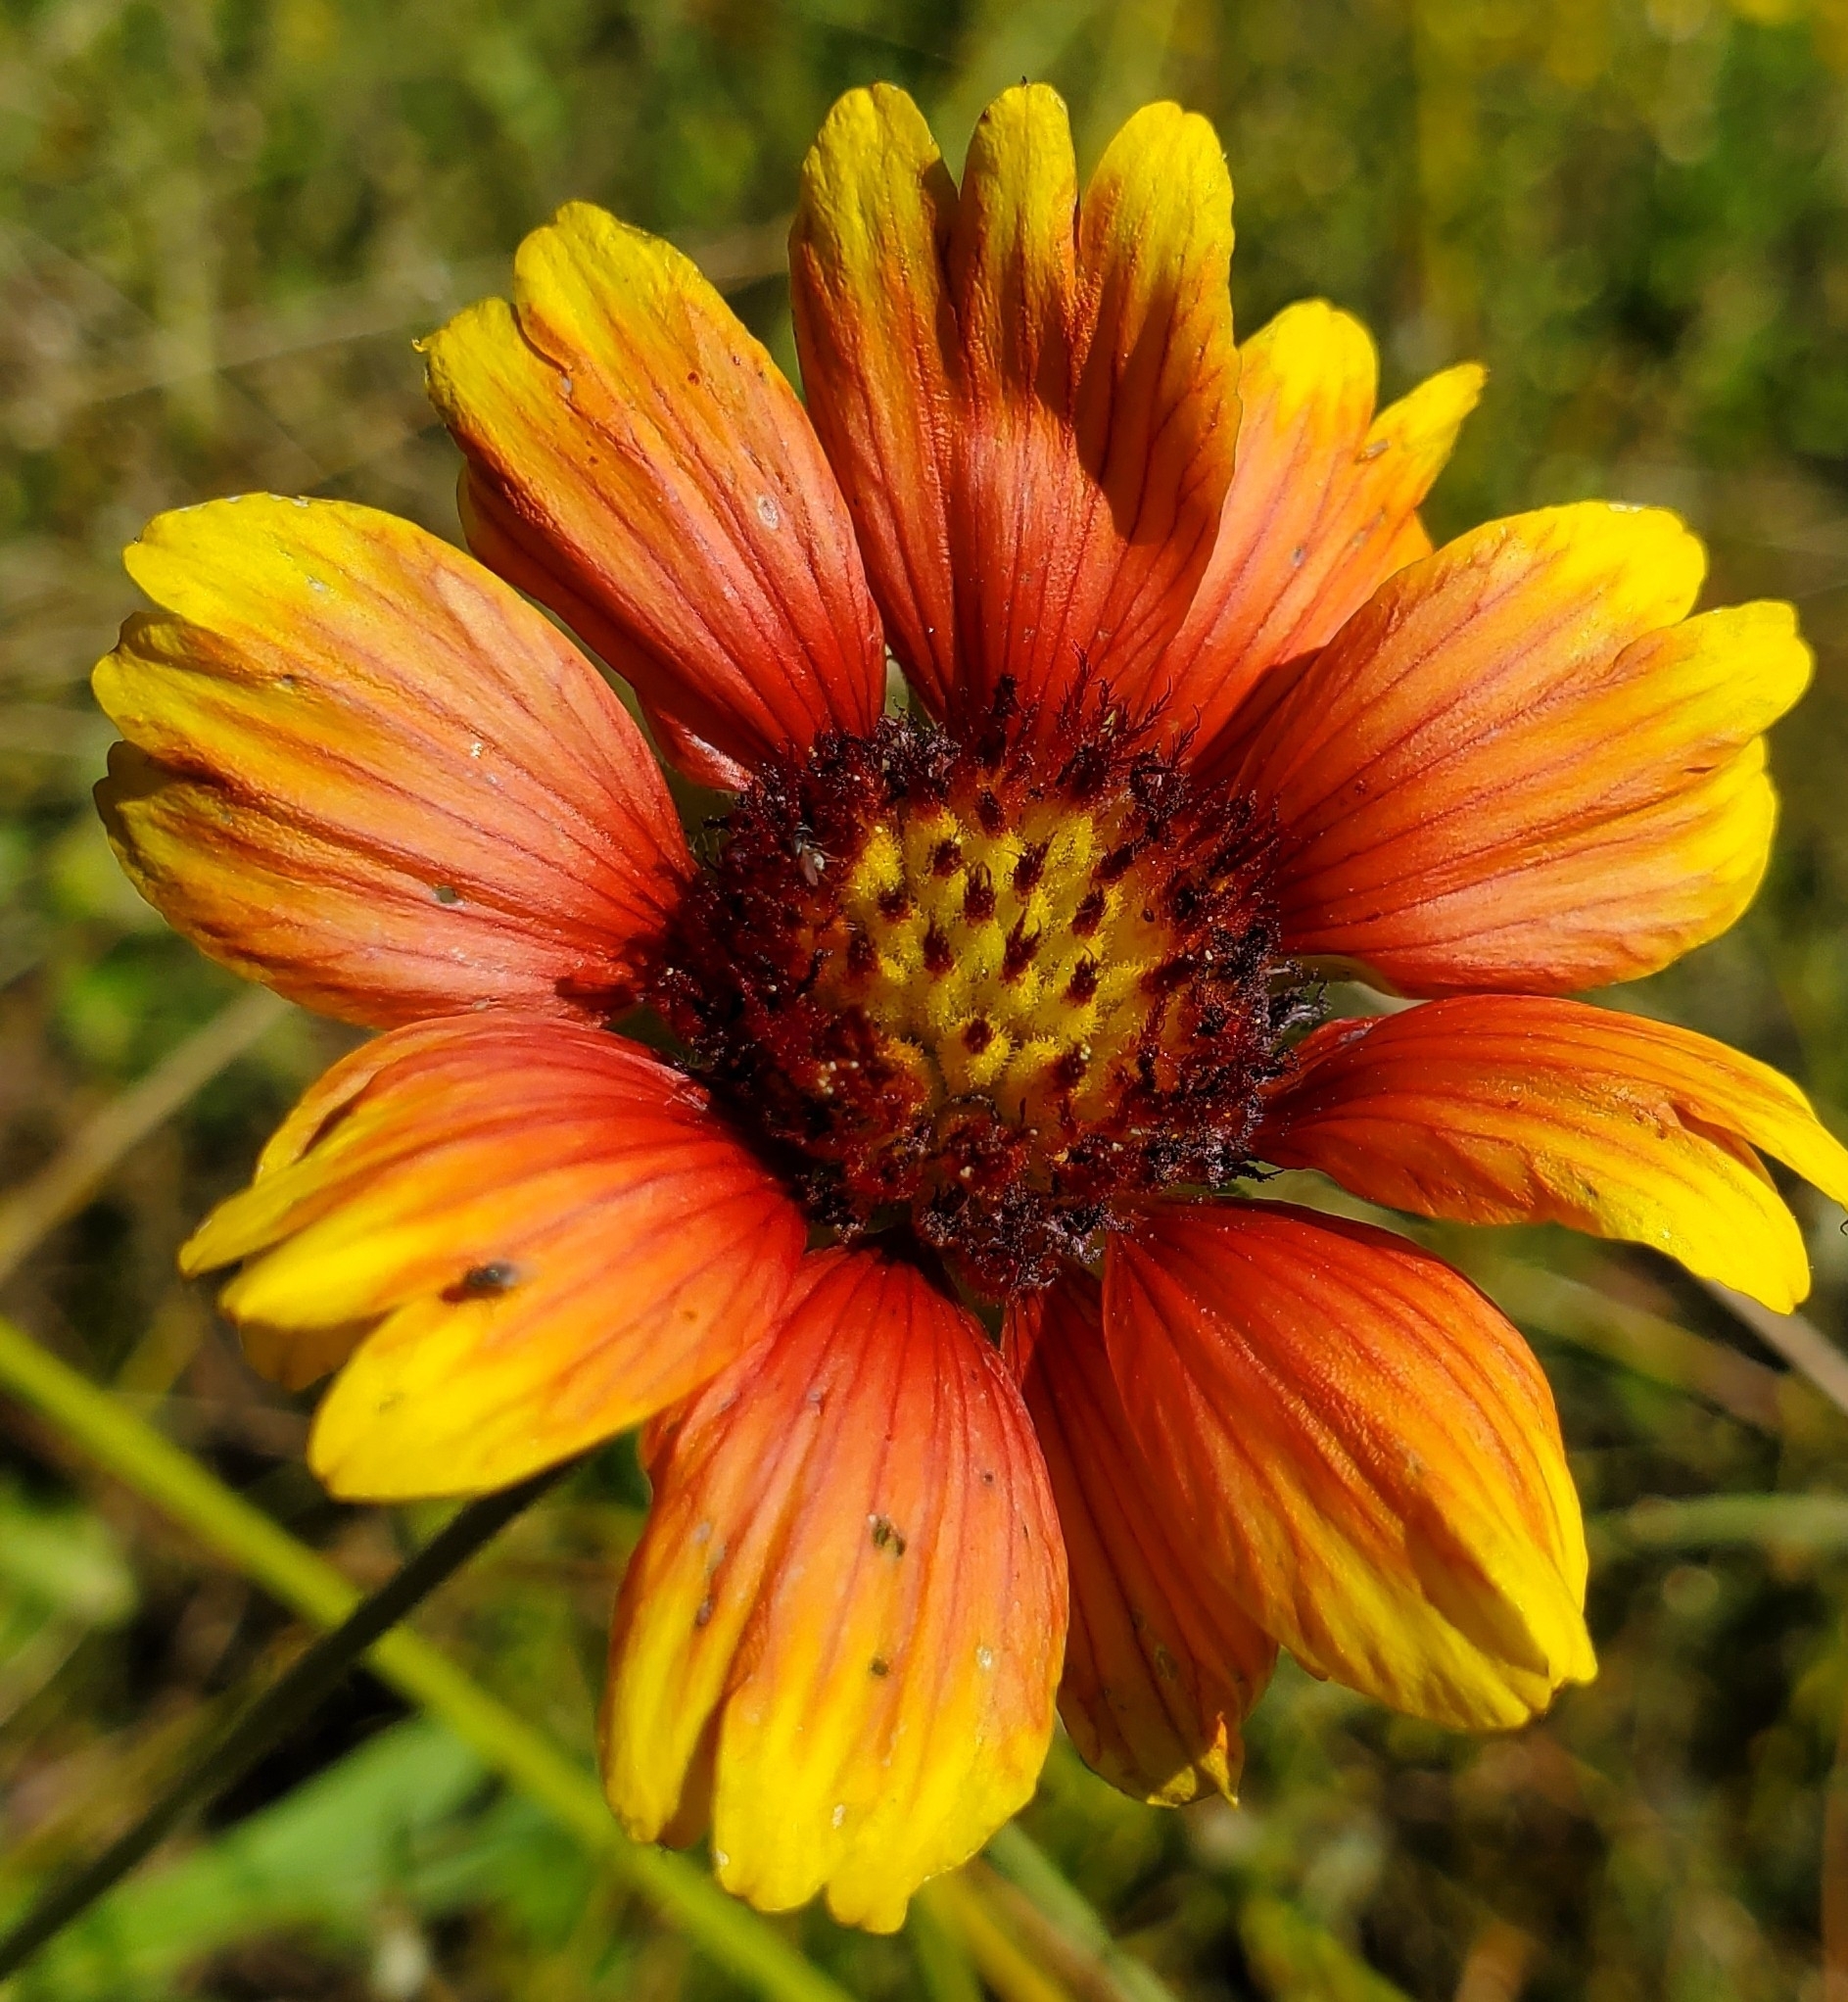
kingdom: Plantae
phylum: Tracheophyta
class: Magnoliopsida
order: Asterales
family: Asteraceae
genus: Gaillardia
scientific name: Gaillardia pulchella
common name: Firewheel
